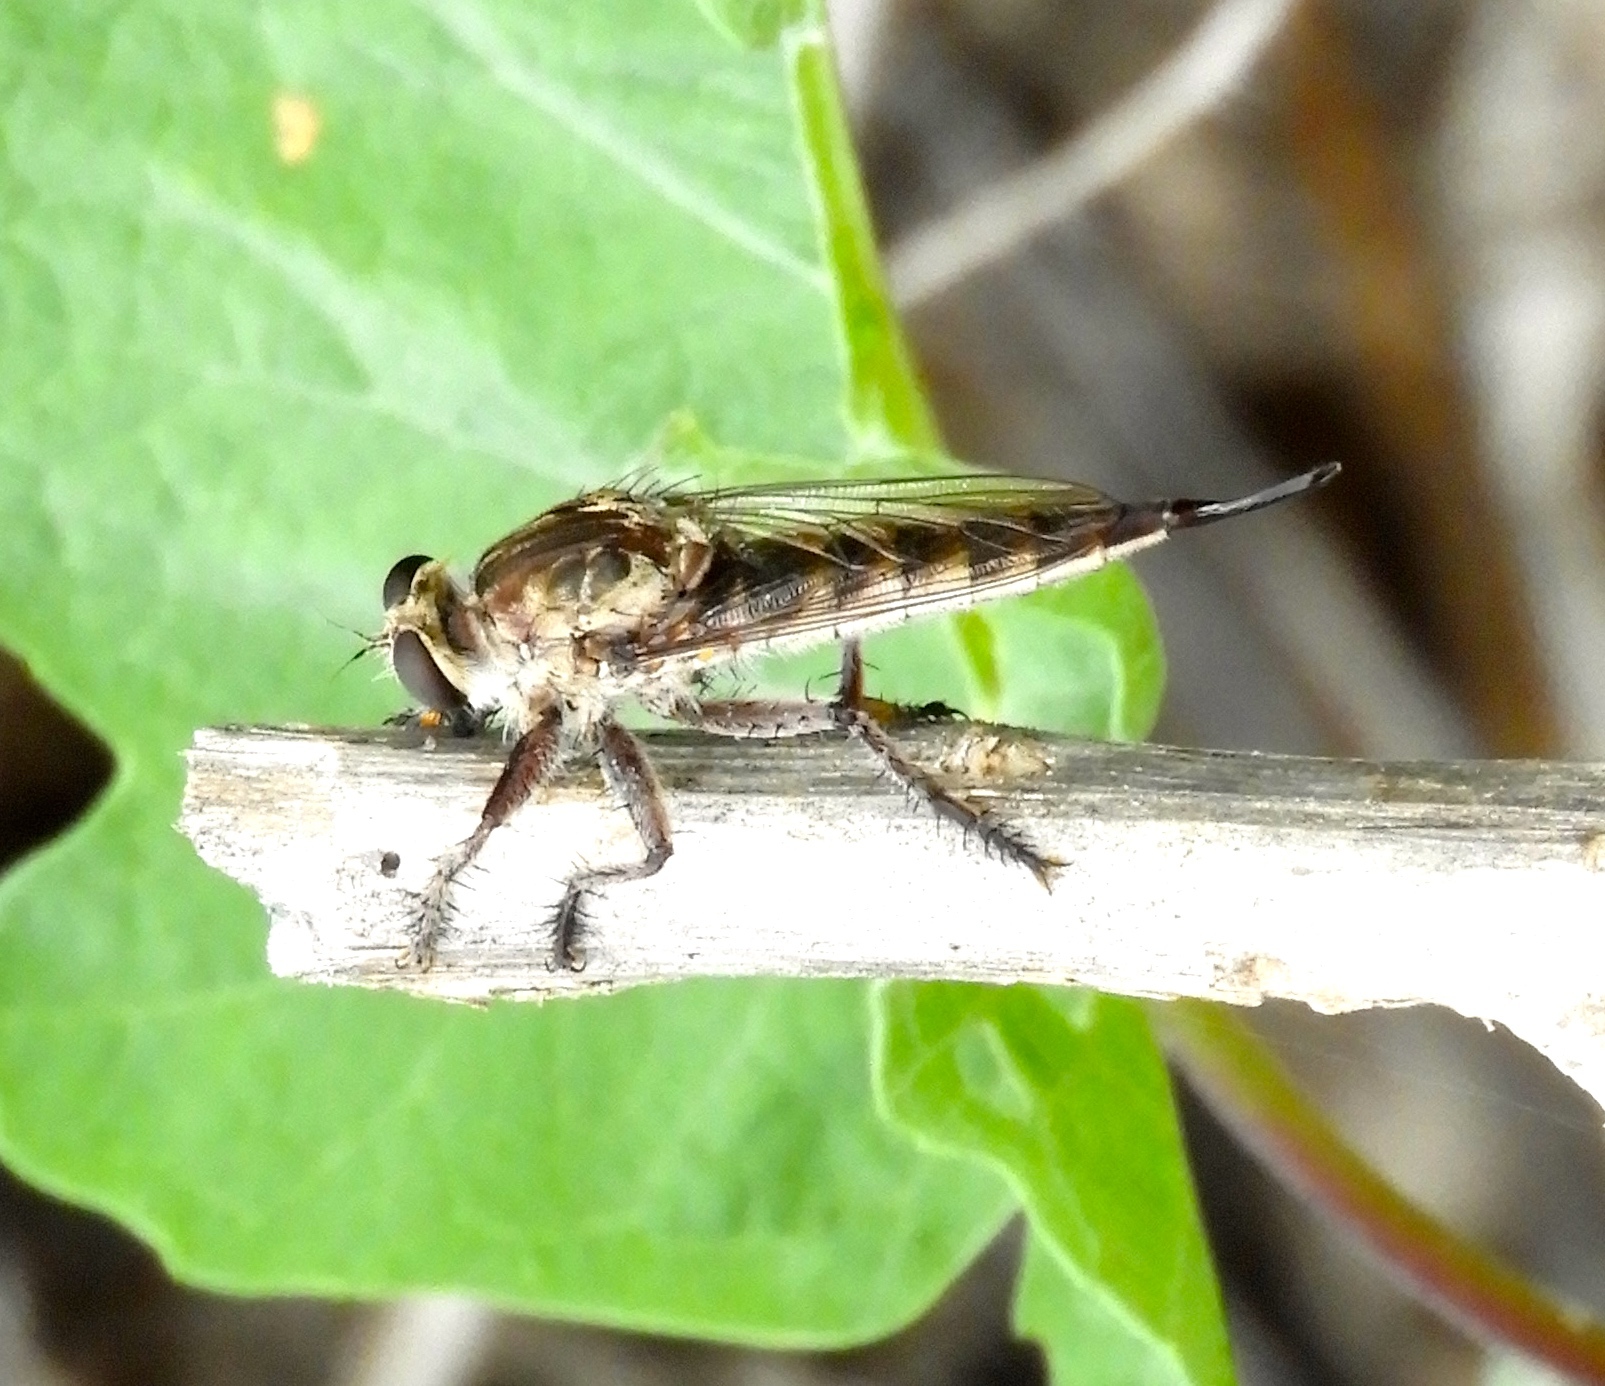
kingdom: Animalia
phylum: Arthropoda
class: Insecta
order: Diptera
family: Asilidae
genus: Efferia
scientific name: Efferia
